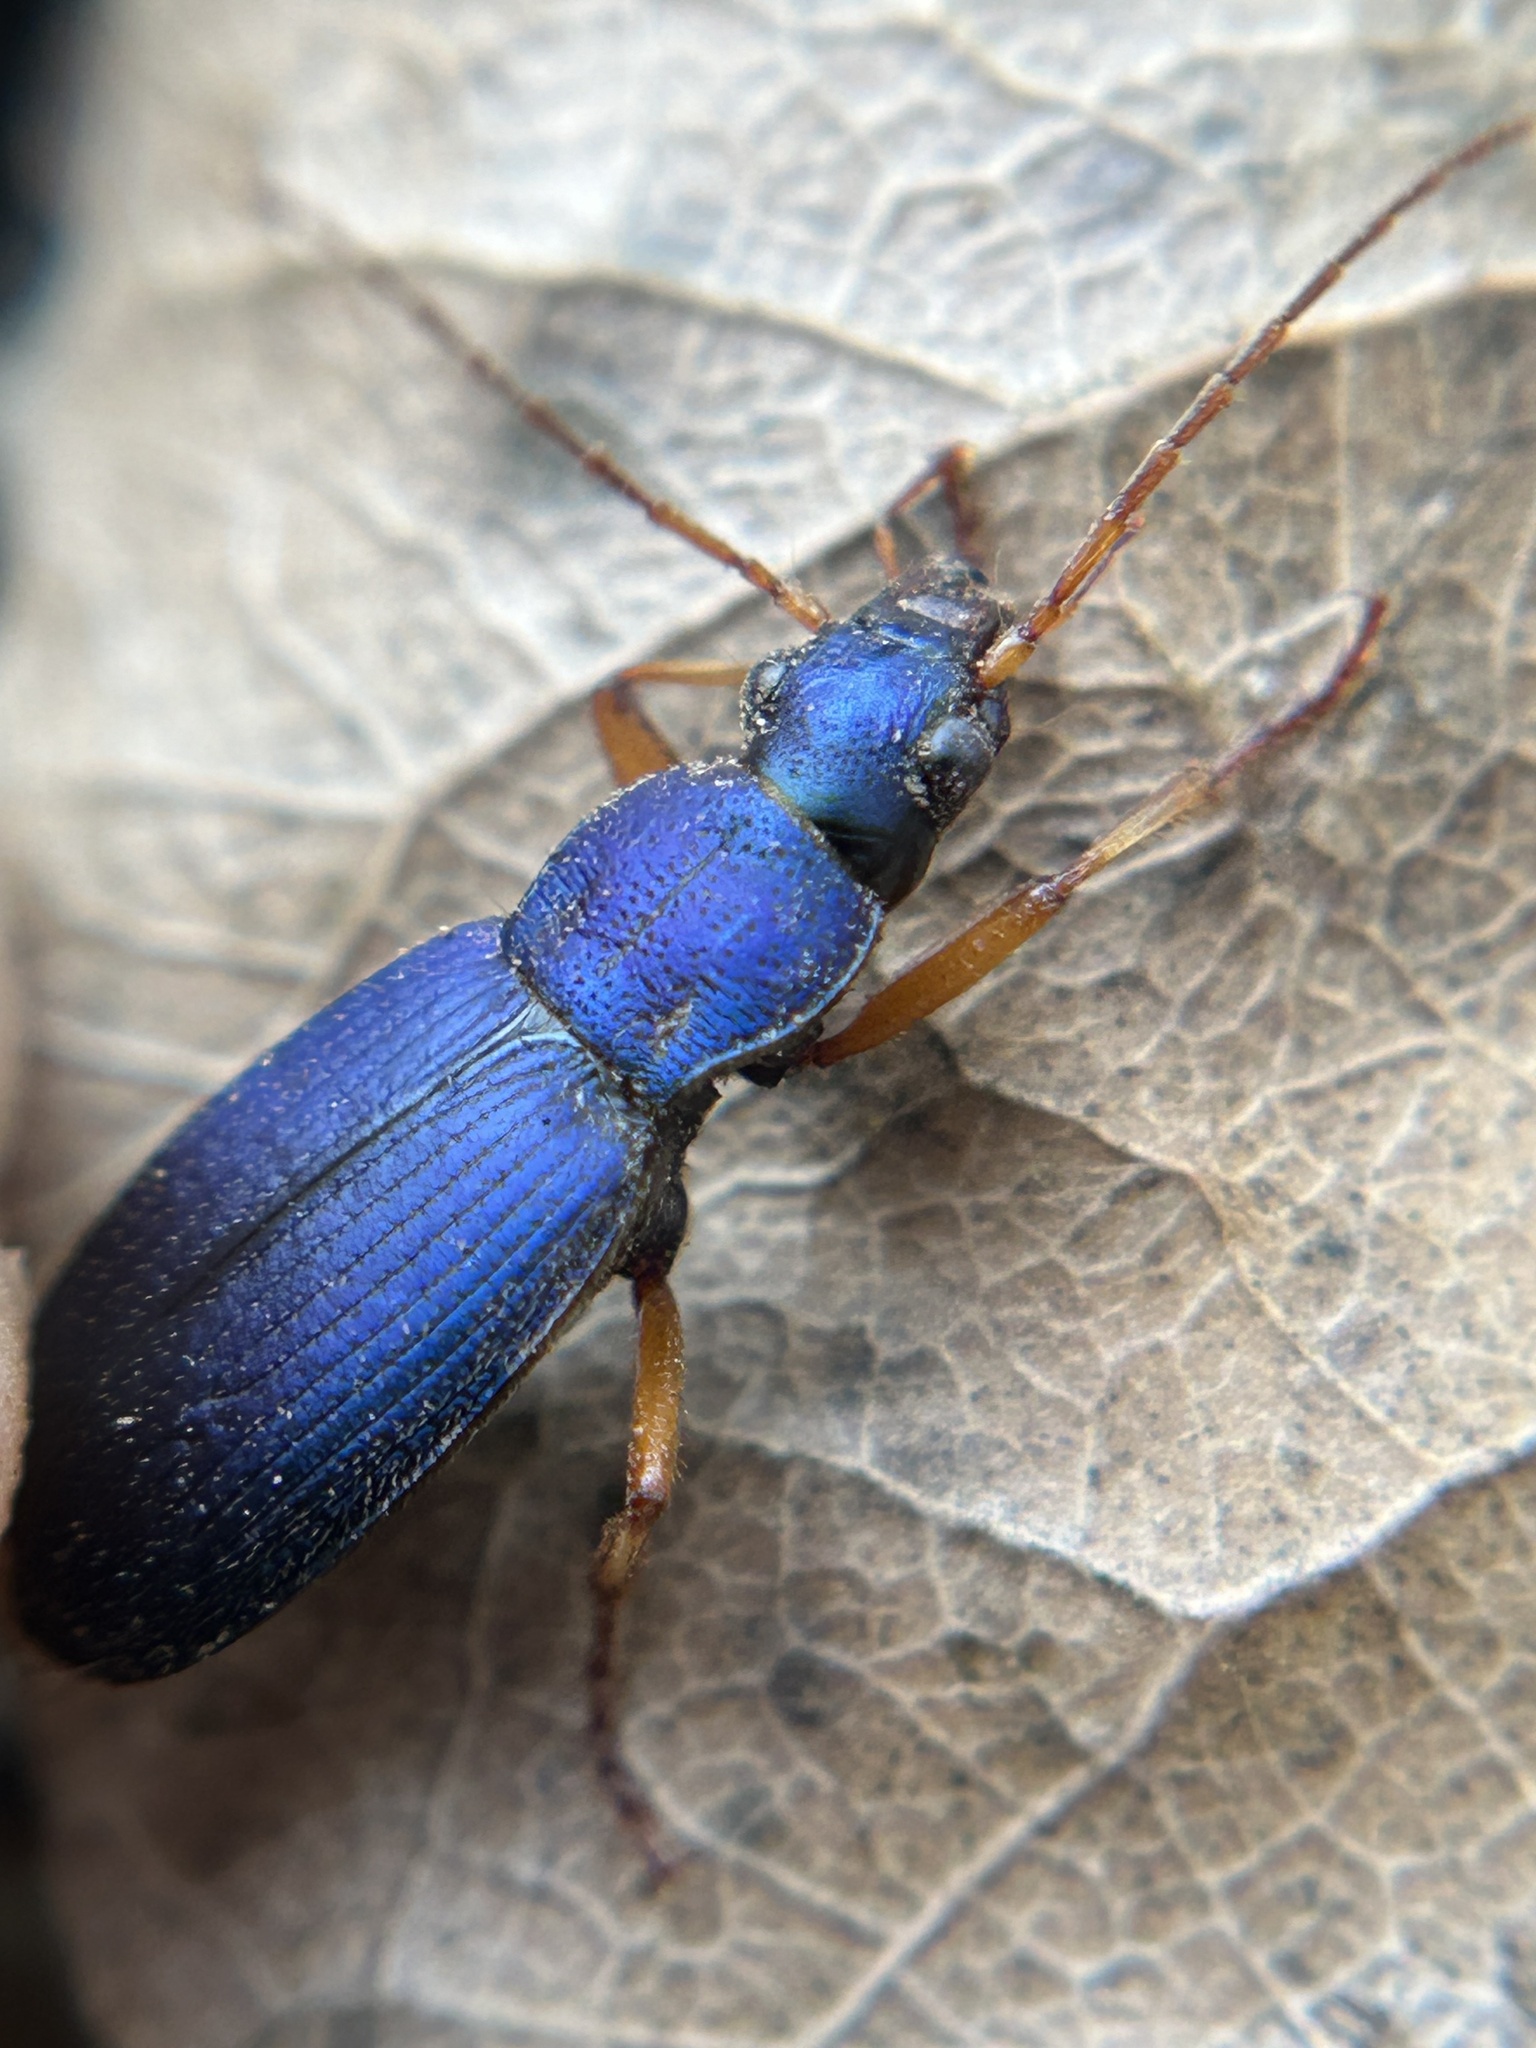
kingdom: Animalia
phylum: Arthropoda
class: Insecta
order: Coleoptera
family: Carabidae
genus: Chlaenius
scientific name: Chlaenius cumatilis
